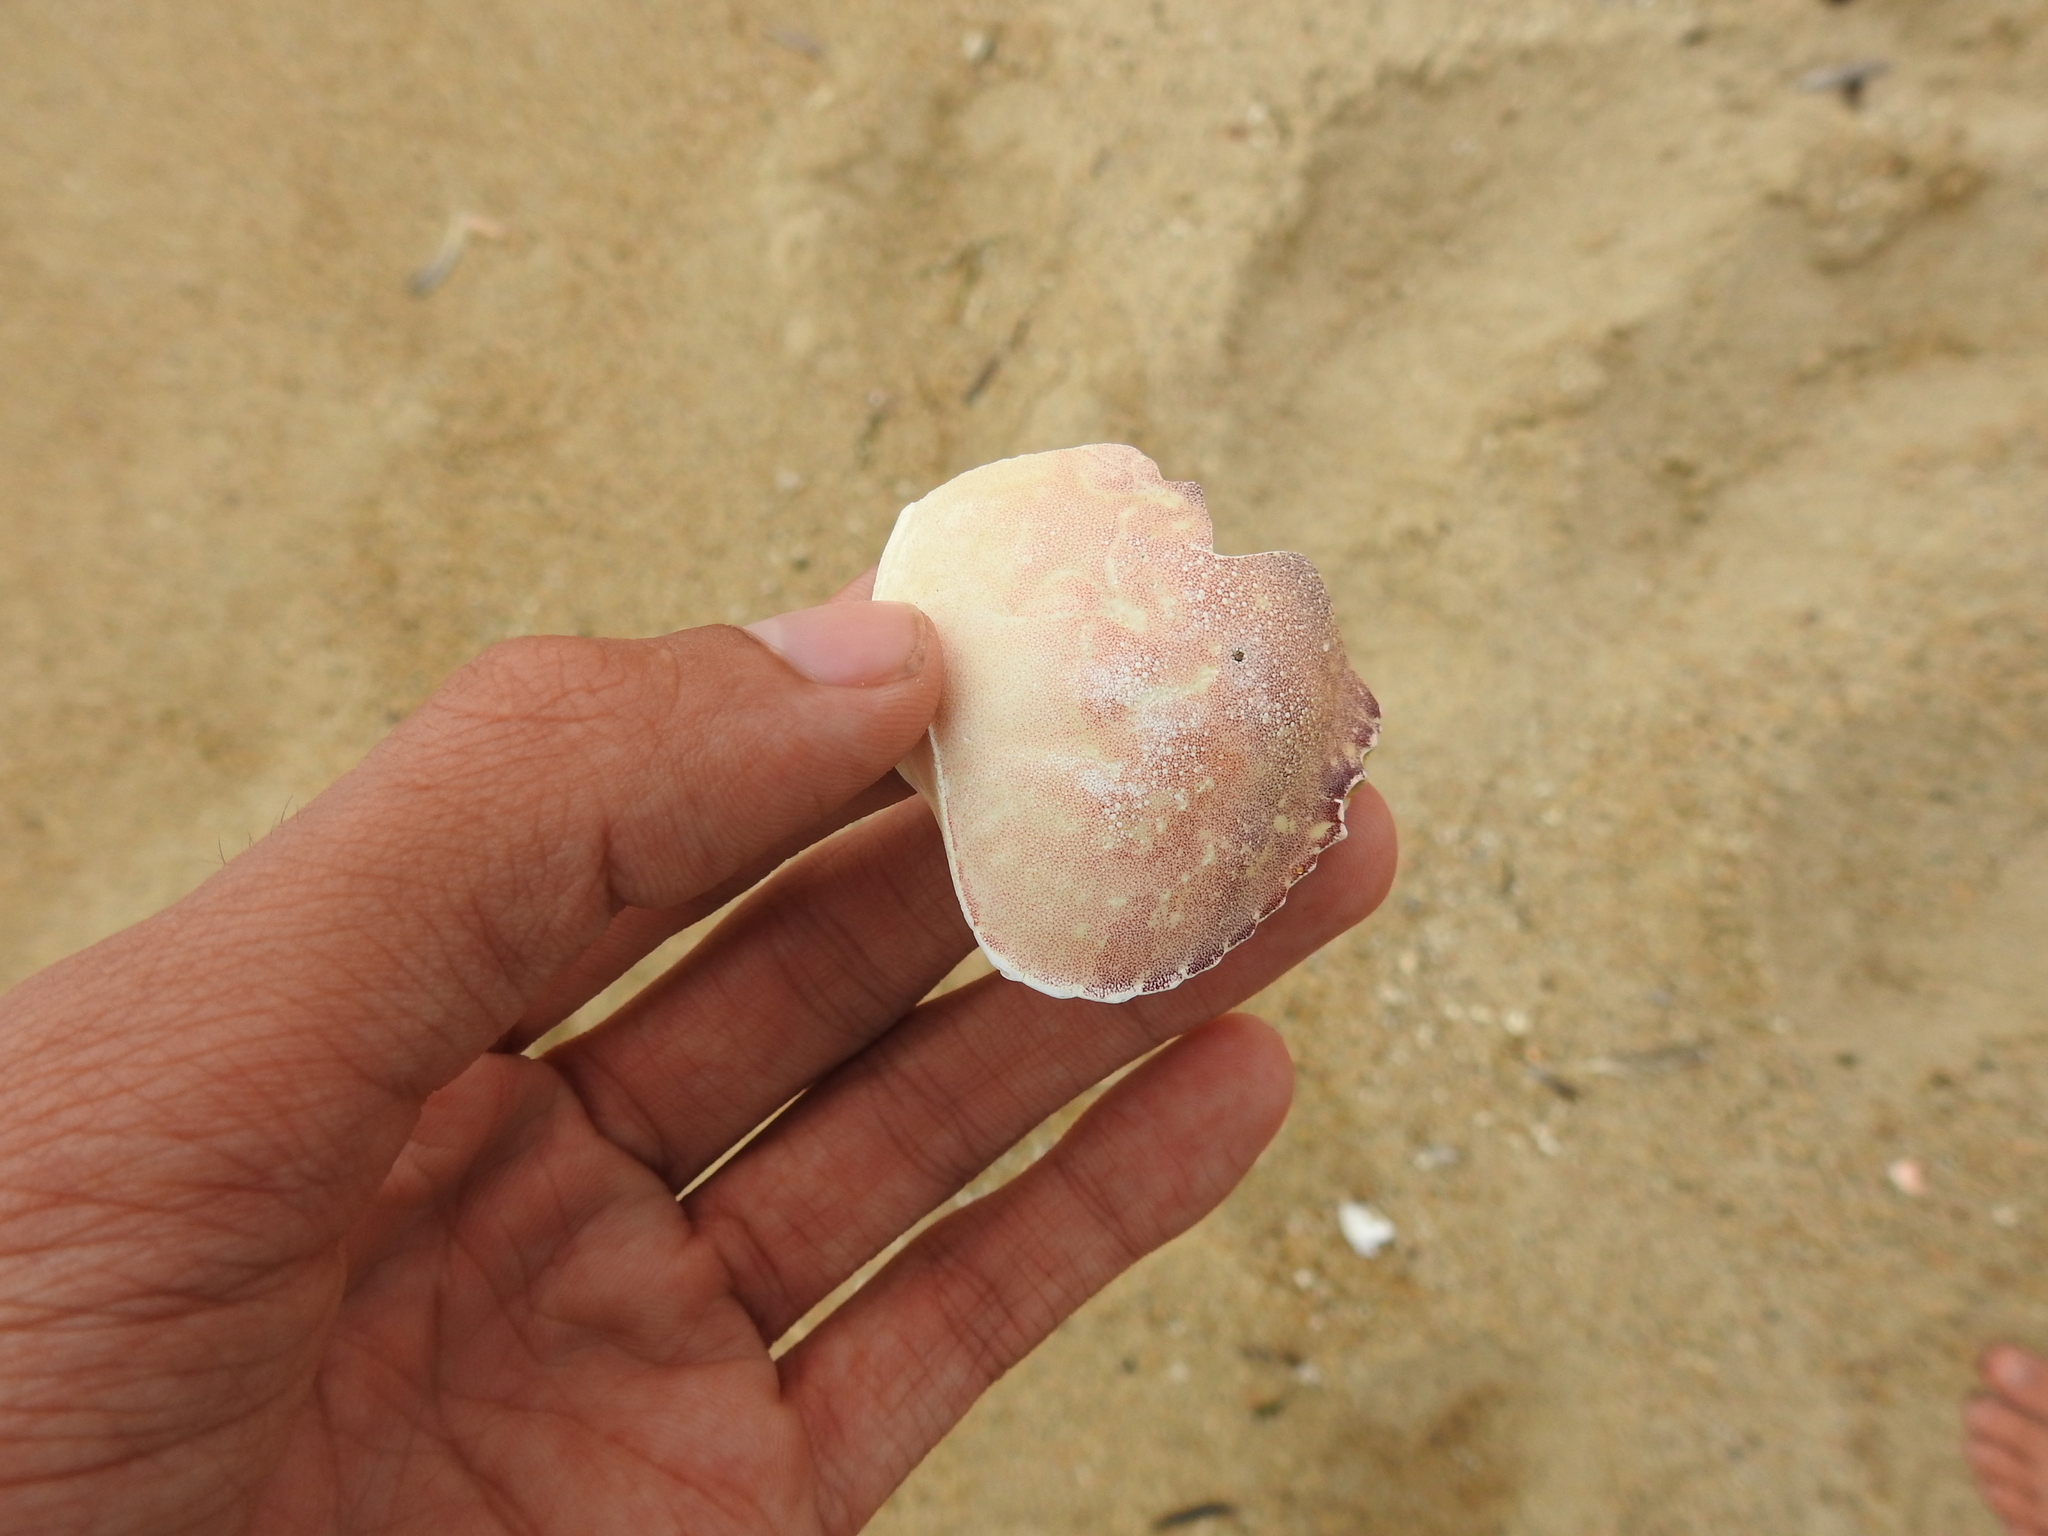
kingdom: Animalia
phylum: Arthropoda
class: Malacostraca
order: Decapoda
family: Cancridae
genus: Metacarcinus
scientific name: Metacarcinus gracilis
